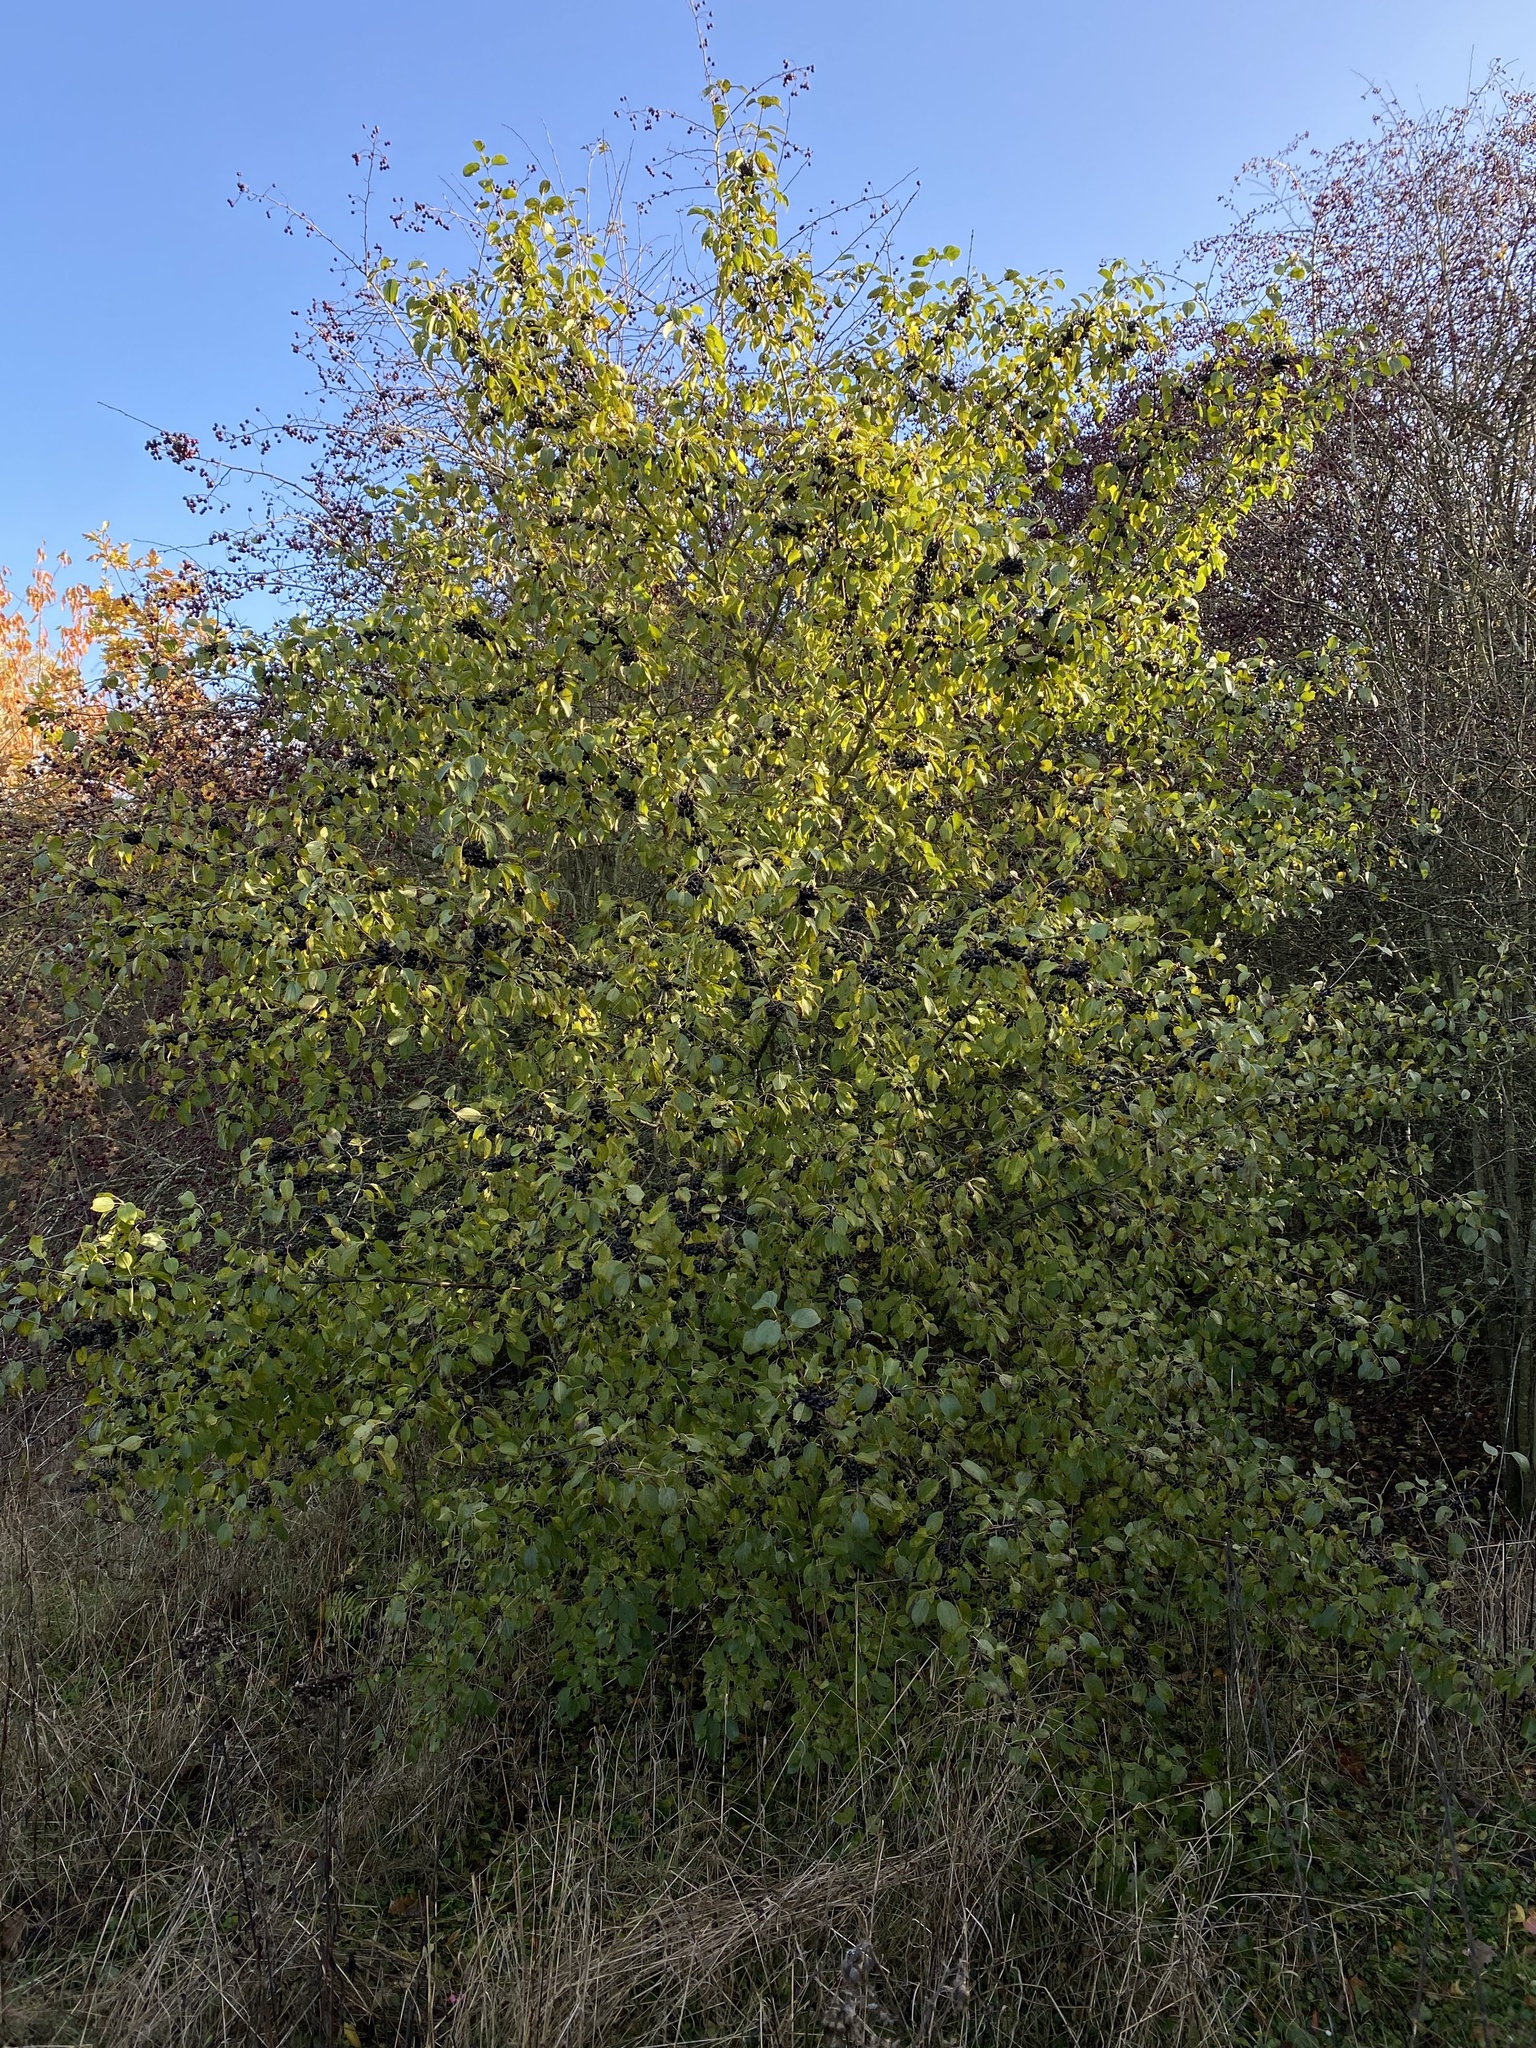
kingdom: Plantae
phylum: Tracheophyta
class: Magnoliopsida
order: Rosales
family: Rhamnaceae
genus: Rhamnus
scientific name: Rhamnus cathartica
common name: Common buckthorn
